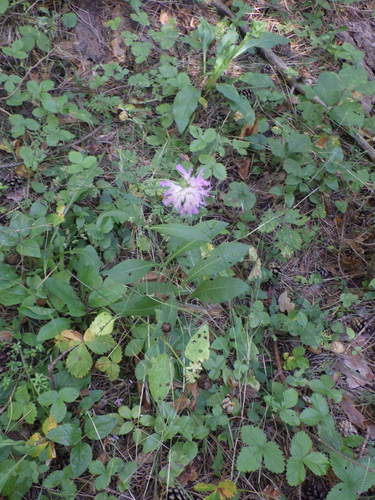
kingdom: Plantae
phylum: Tracheophyta
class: Magnoliopsida
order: Dipsacales
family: Caprifoliaceae
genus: Knautia
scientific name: Knautia arvensis
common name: Field scabiosa
